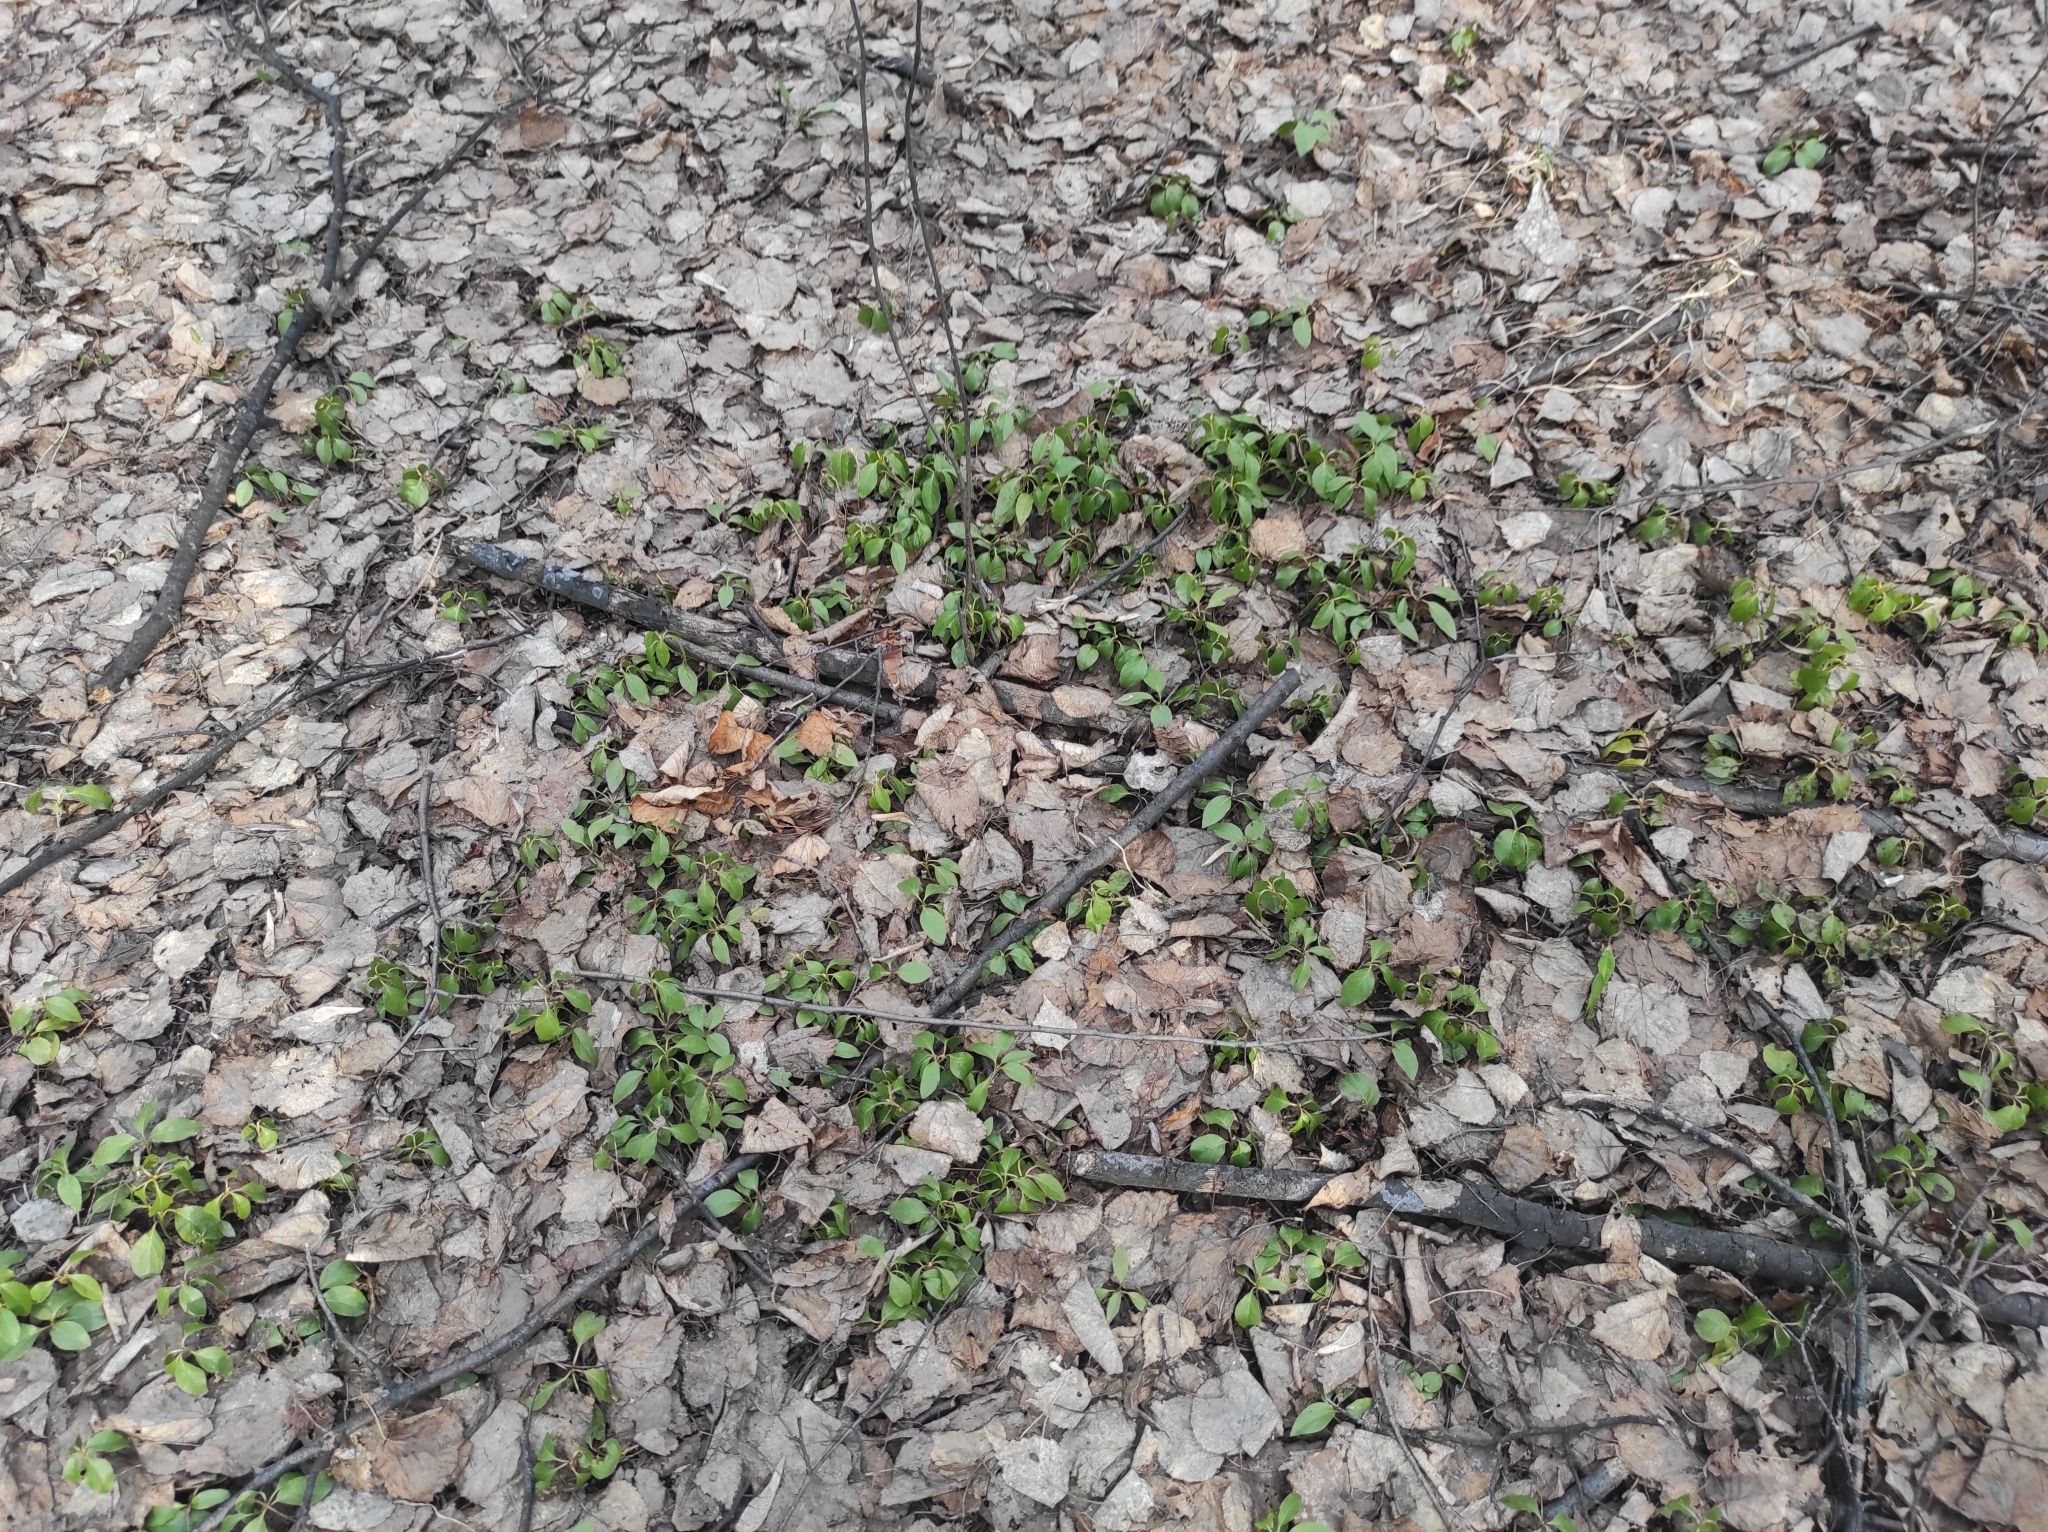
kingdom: Plantae
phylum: Tracheophyta
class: Magnoliopsida
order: Ericales
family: Ericaceae
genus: Orthilia
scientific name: Orthilia secunda
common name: One-sided orthilia
